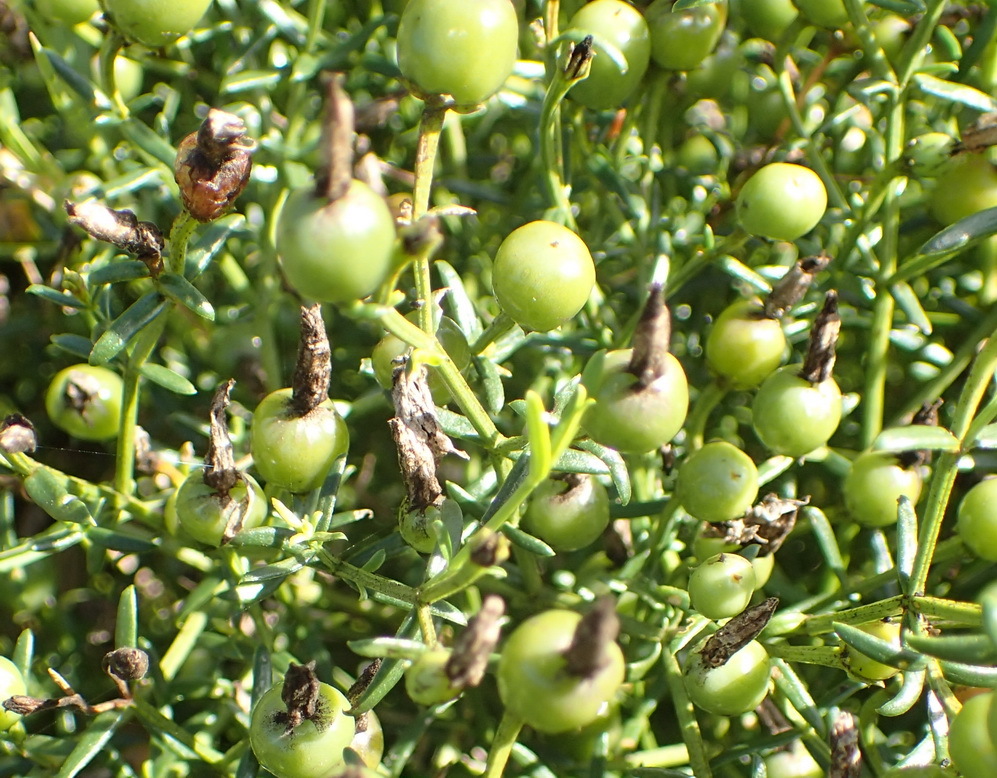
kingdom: Plantae
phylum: Tracheophyta
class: Magnoliopsida
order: Gentianales
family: Gentianaceae
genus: Chironia
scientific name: Chironia baccifera
